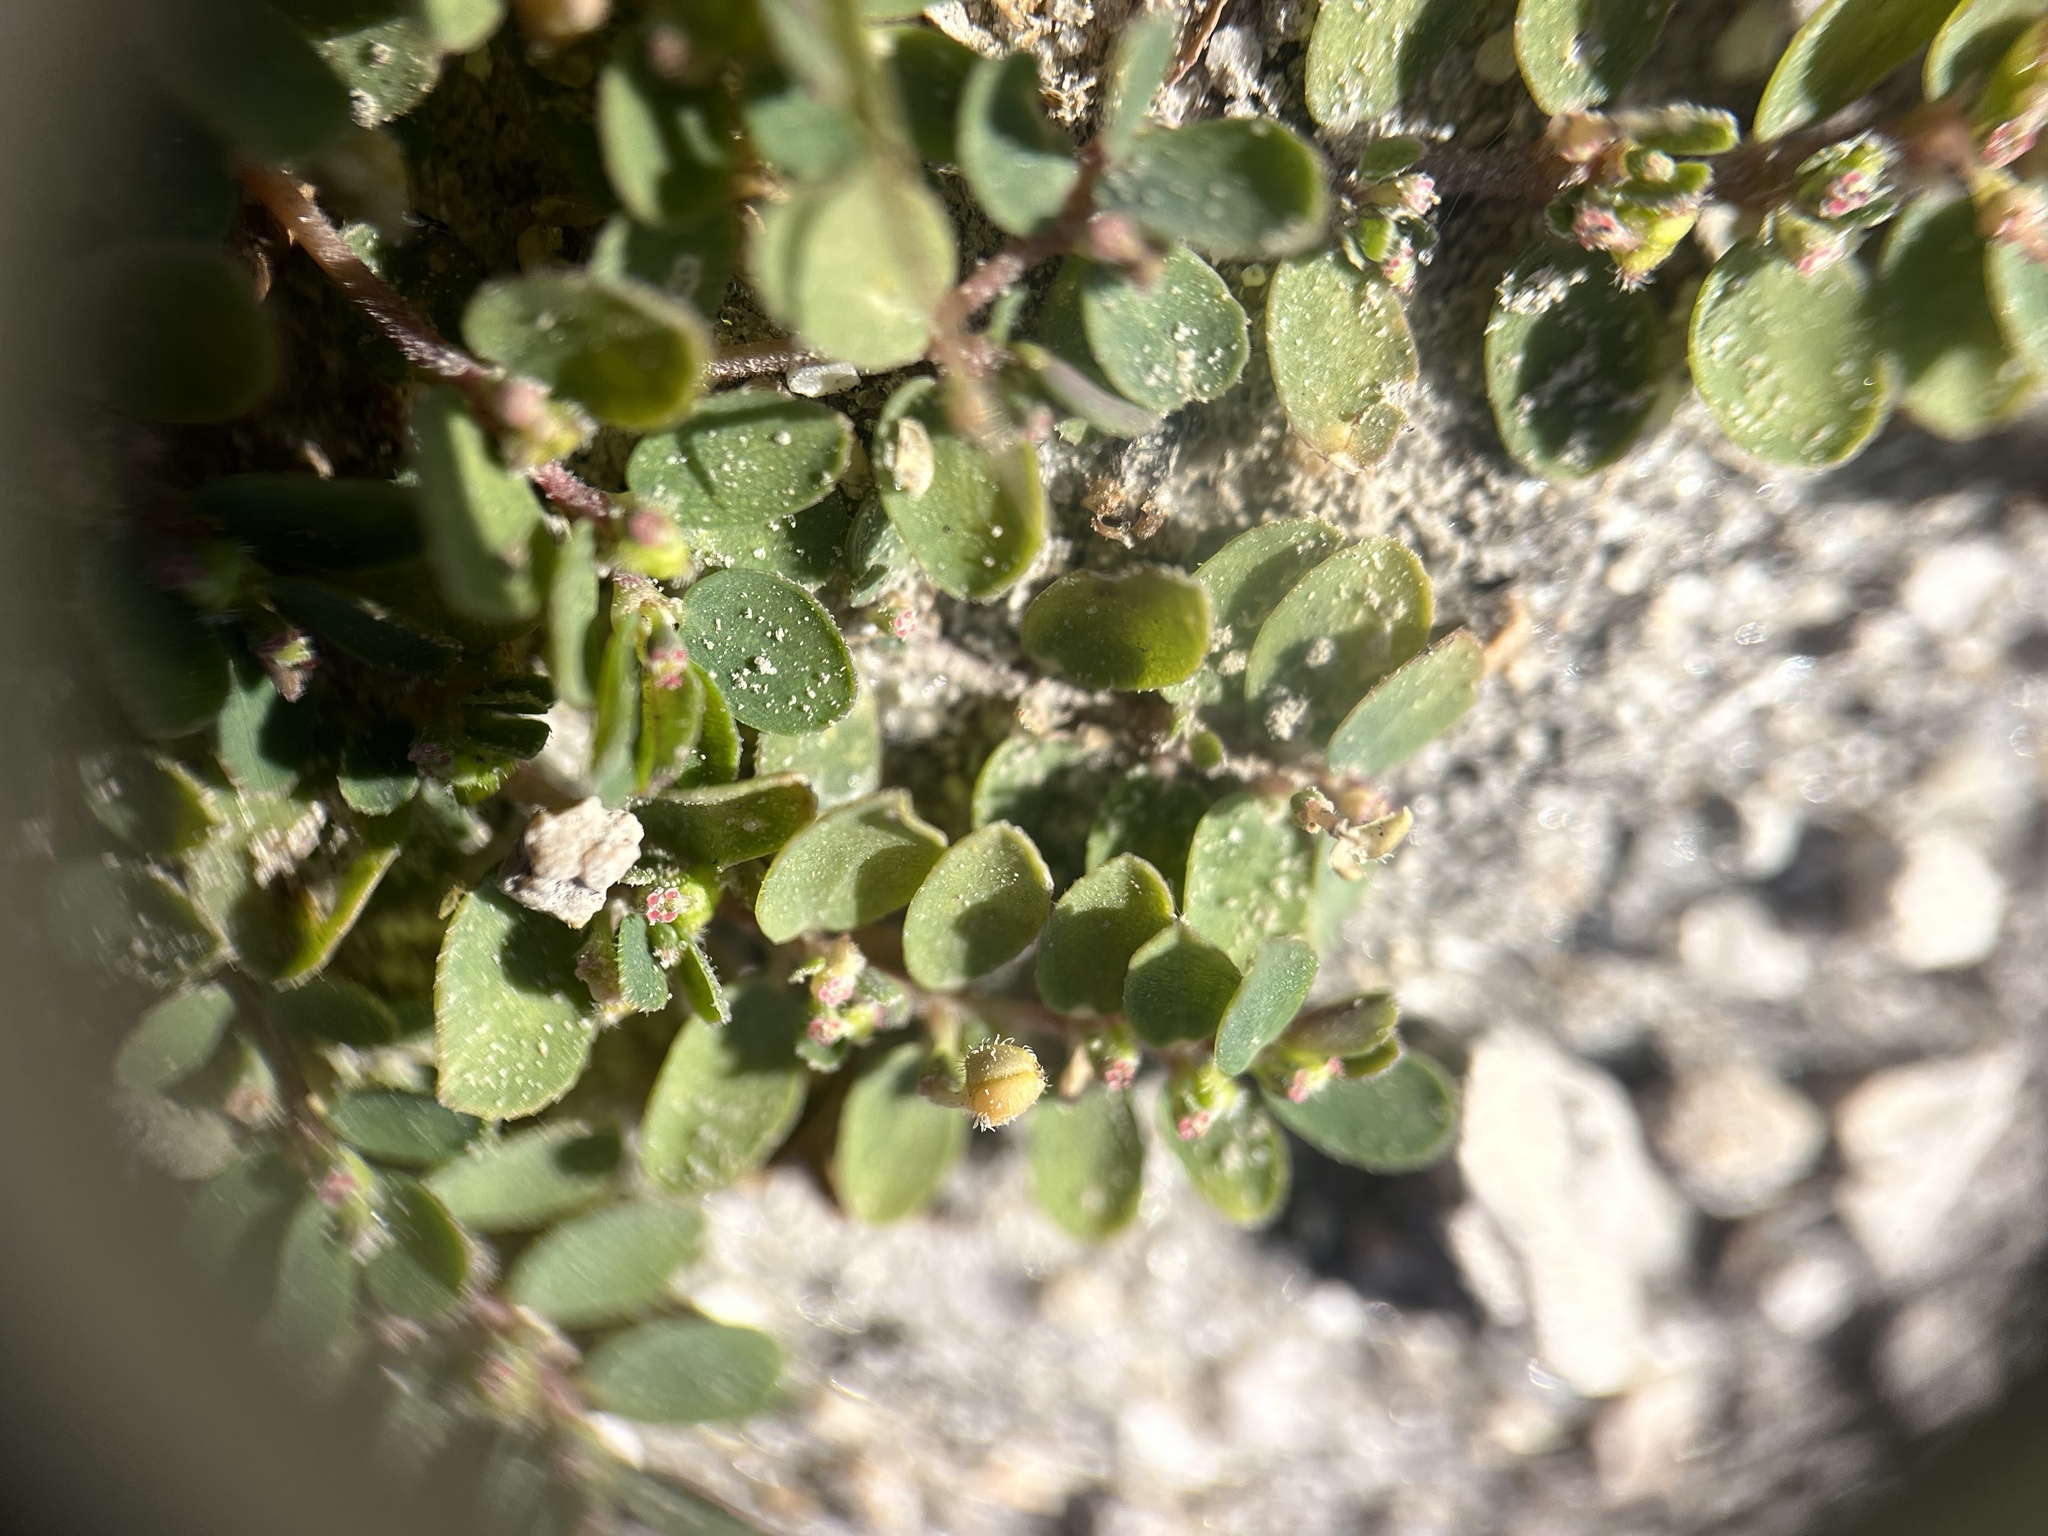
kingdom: Plantae
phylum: Tracheophyta
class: Magnoliopsida
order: Malpighiales
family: Euphorbiaceae
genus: Euphorbia
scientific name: Euphorbia prostrata
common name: Prostrate sandmat
